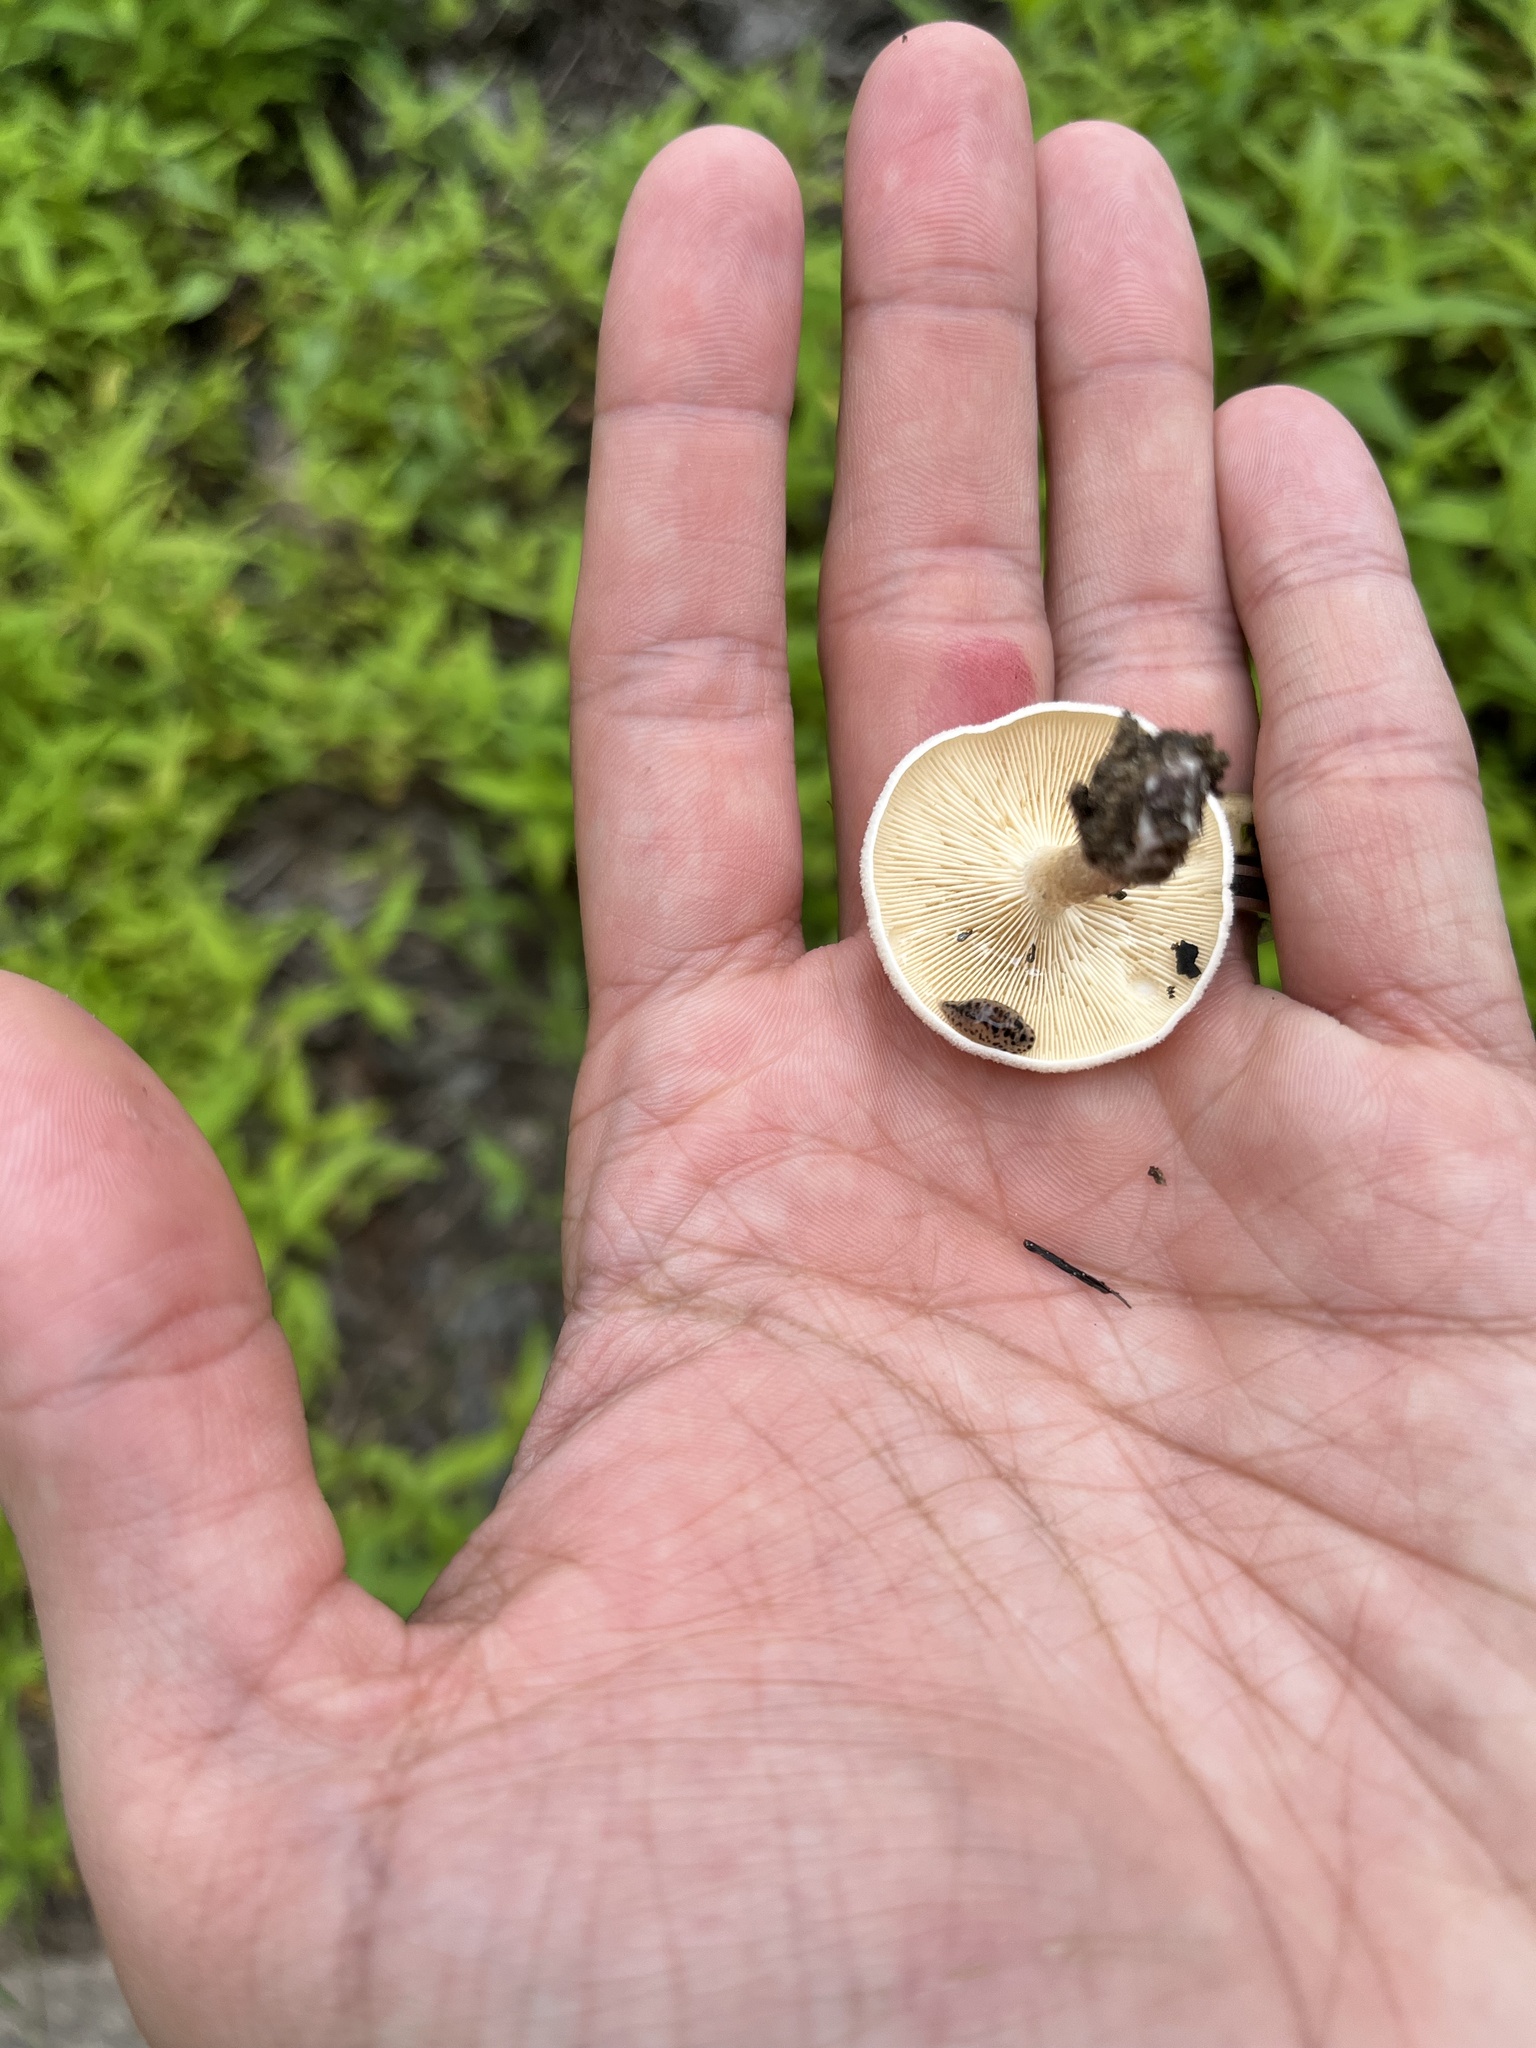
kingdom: Fungi
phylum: Basidiomycota
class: Agaricomycetes
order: Polyporales
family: Polyporaceae
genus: Lentinus
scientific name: Lentinus tigrinus
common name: Tiger sawgill
